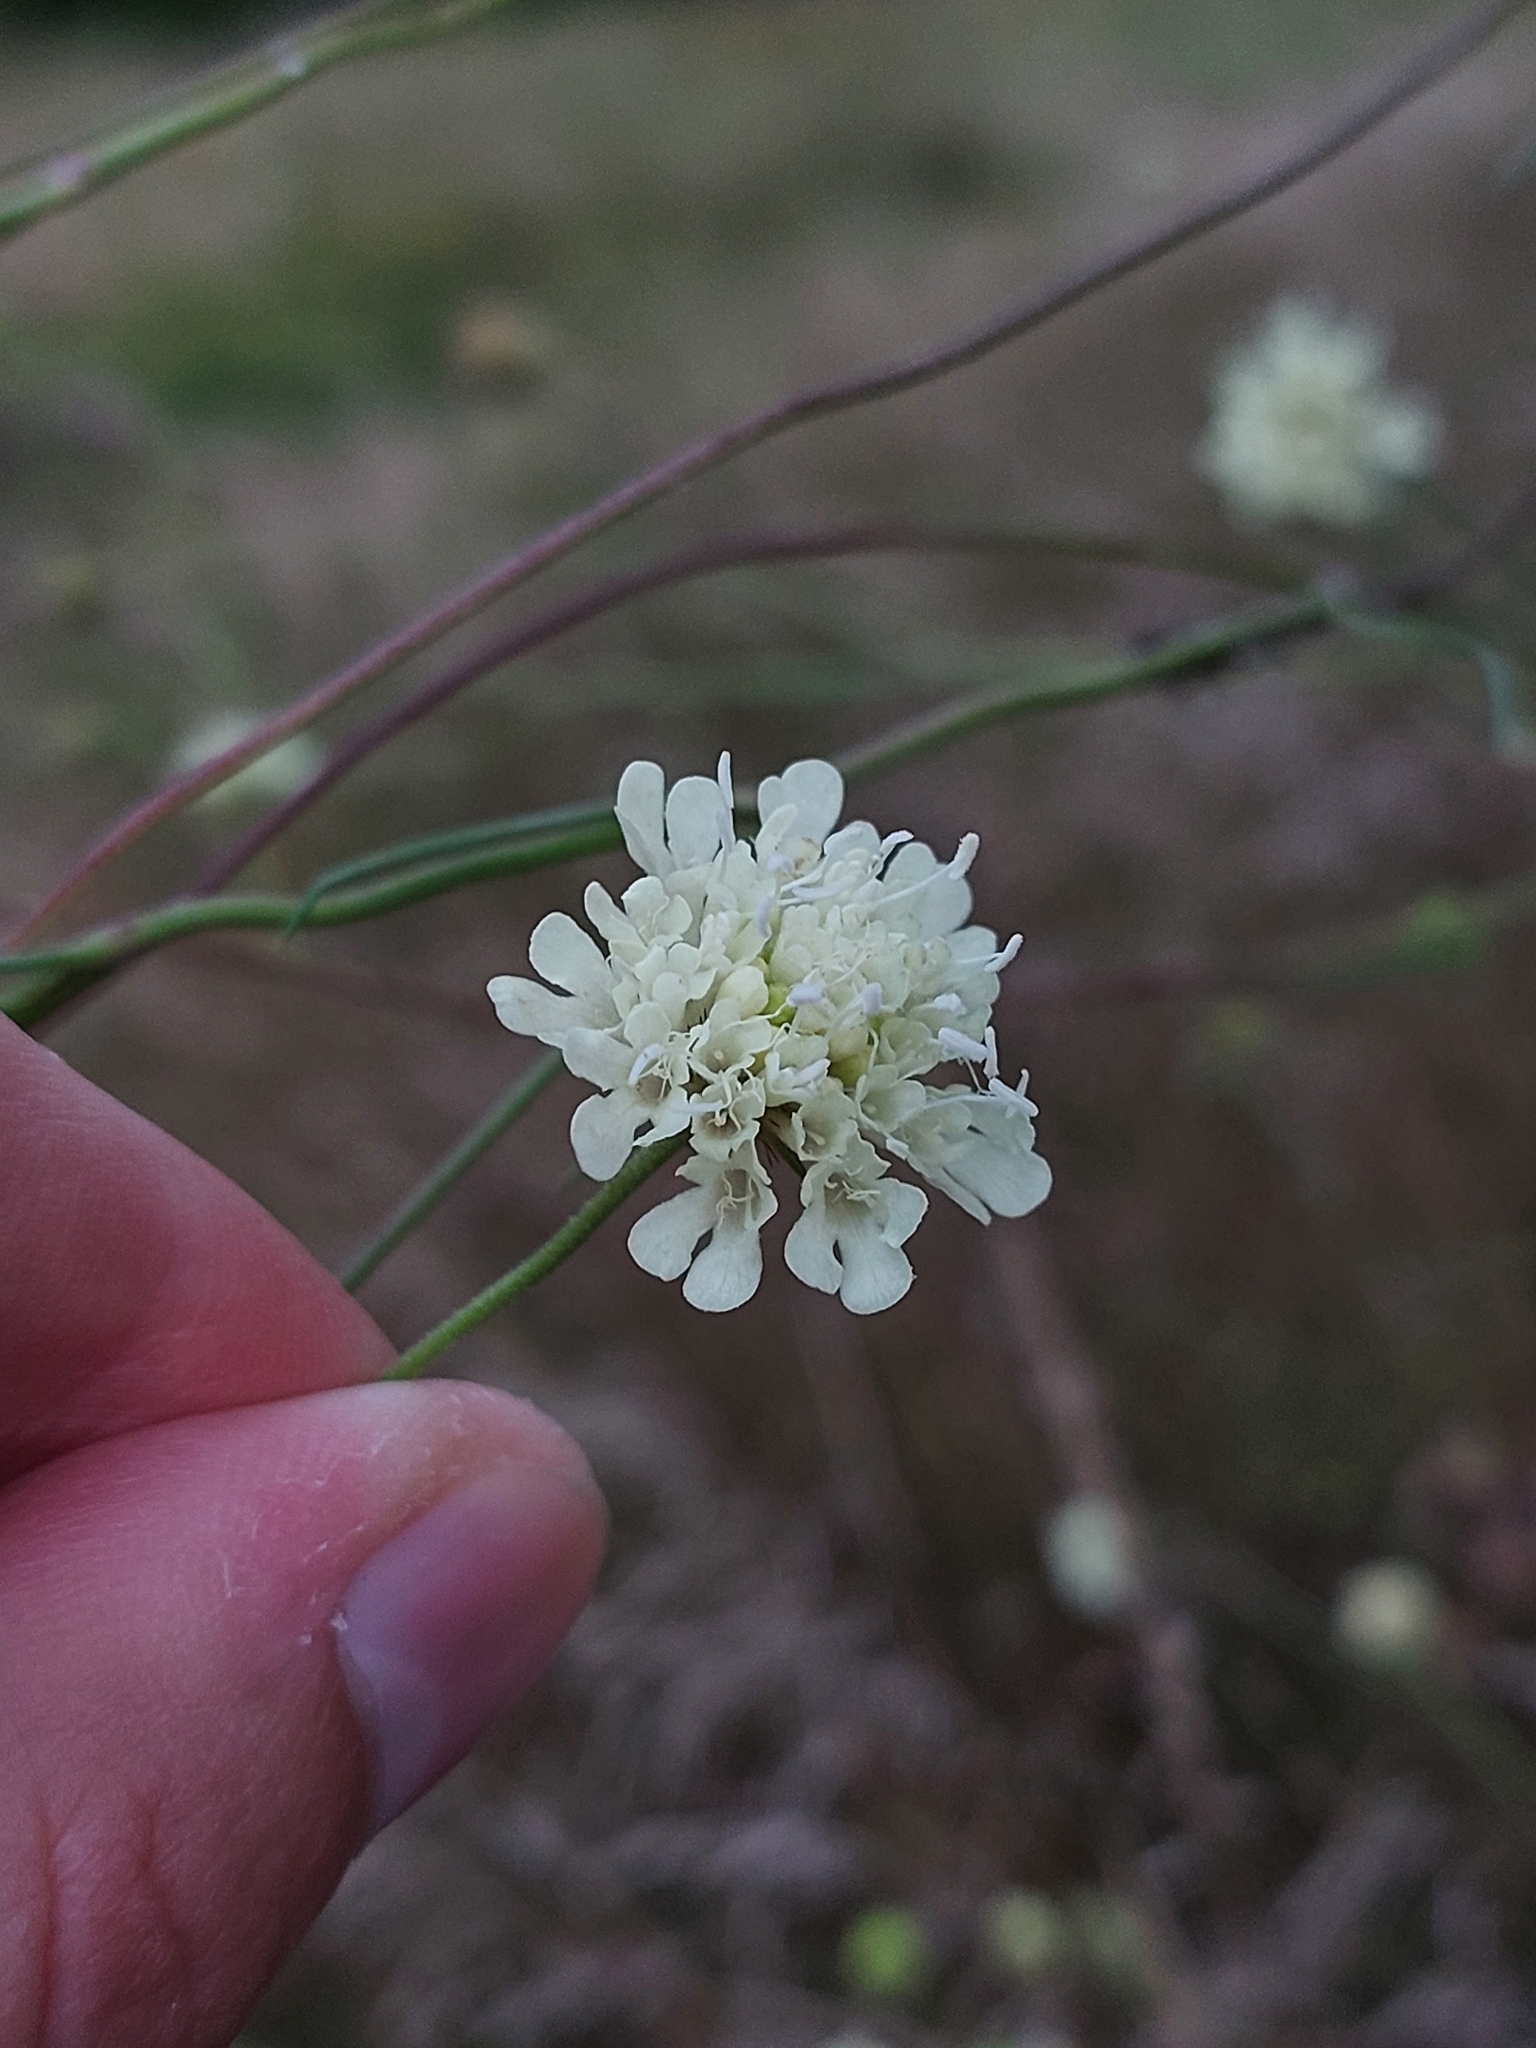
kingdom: Plantae
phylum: Tracheophyta
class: Magnoliopsida
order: Dipsacales
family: Caprifoliaceae
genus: Scabiosa
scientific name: Scabiosa ochroleuca
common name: Cream pincushions
